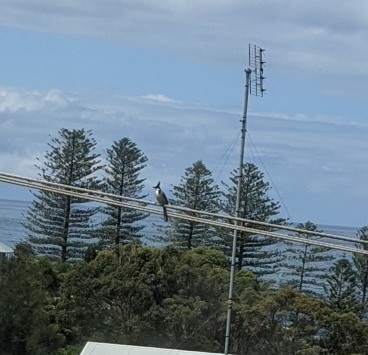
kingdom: Animalia
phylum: Chordata
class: Aves
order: Passeriformes
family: Pycnonotidae
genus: Pycnonotus
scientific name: Pycnonotus jocosus
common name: Red-whiskered bulbul
